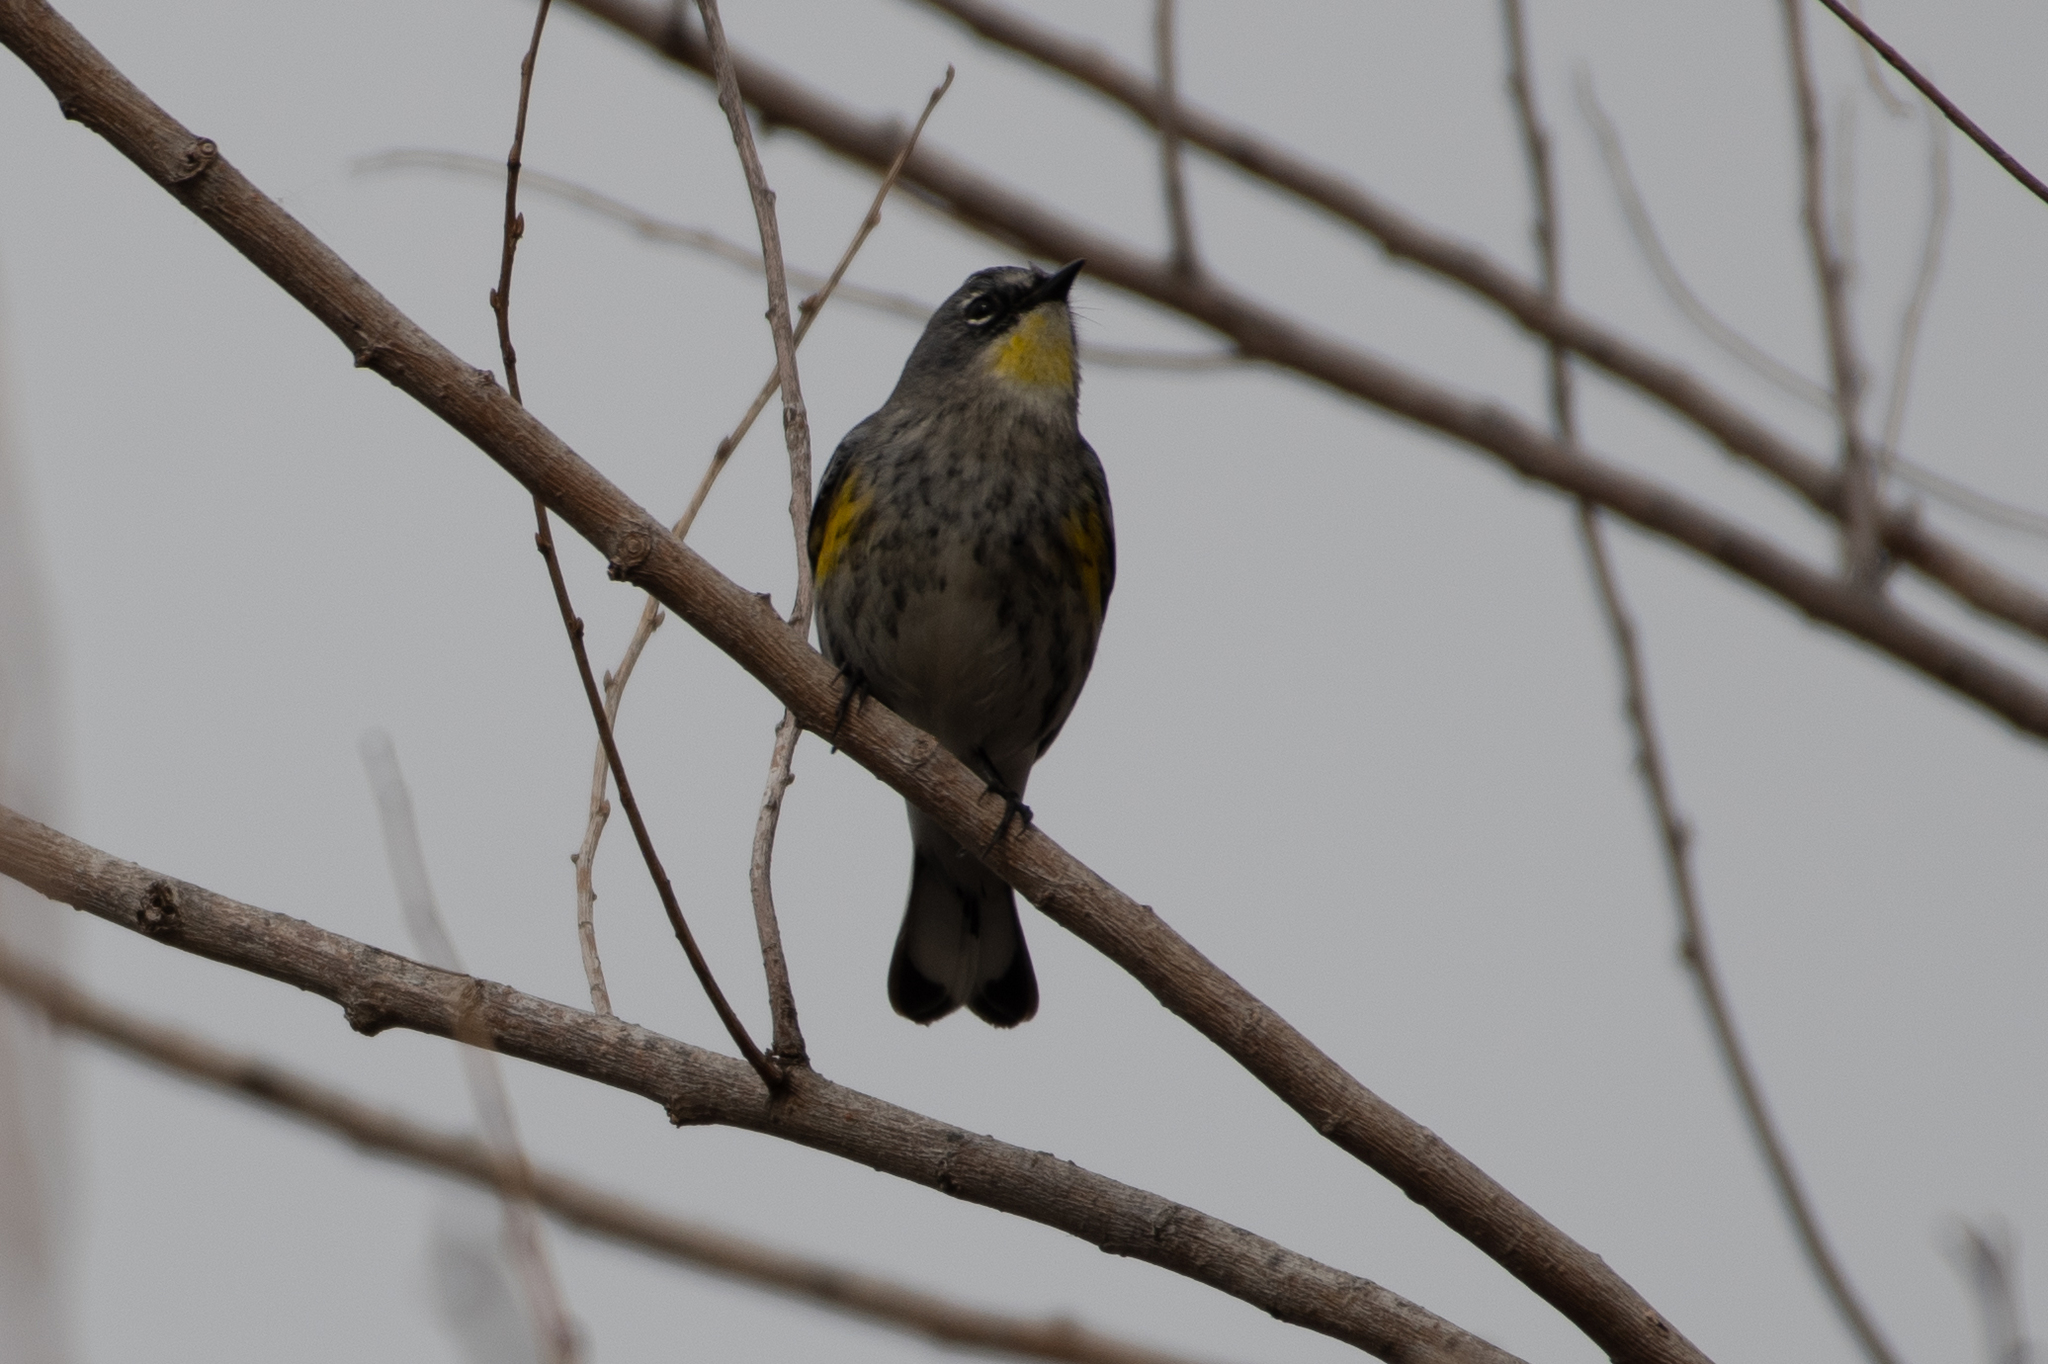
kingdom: Animalia
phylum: Chordata
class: Aves
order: Passeriformes
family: Parulidae
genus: Setophaga
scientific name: Setophaga coronata
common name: Myrtle warbler
